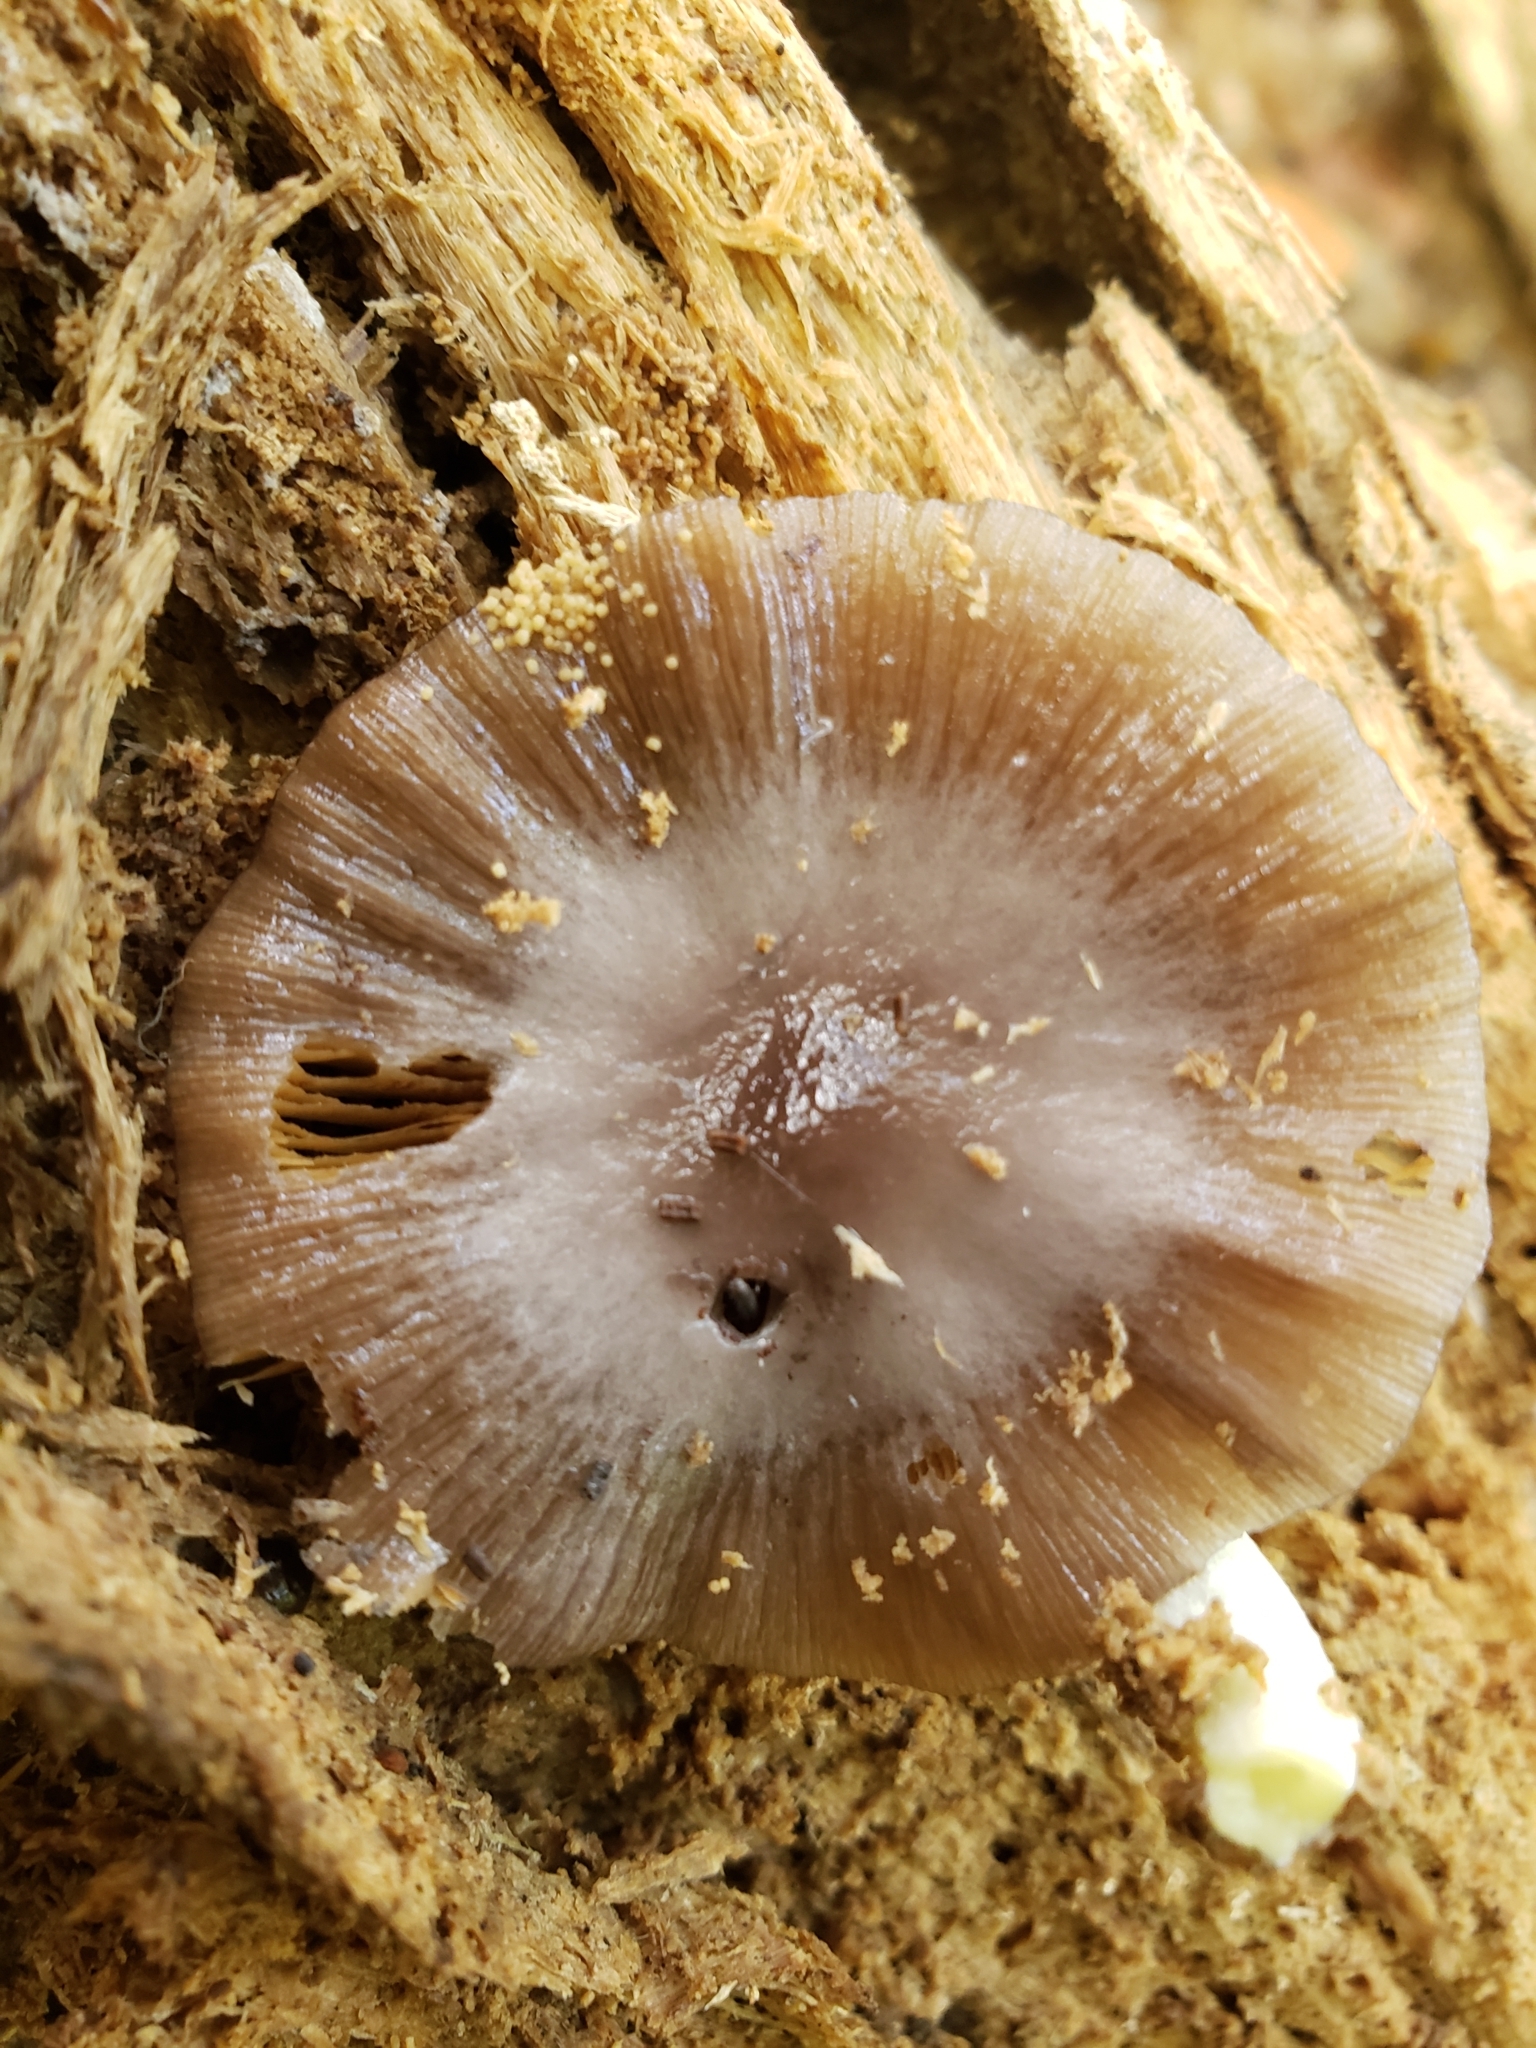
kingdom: Fungi
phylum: Basidiomycota
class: Agaricomycetes
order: Agaricales
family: Bolbitiaceae
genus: Bolbitius
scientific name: Bolbitius reticulatus
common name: Netted fieldcap
